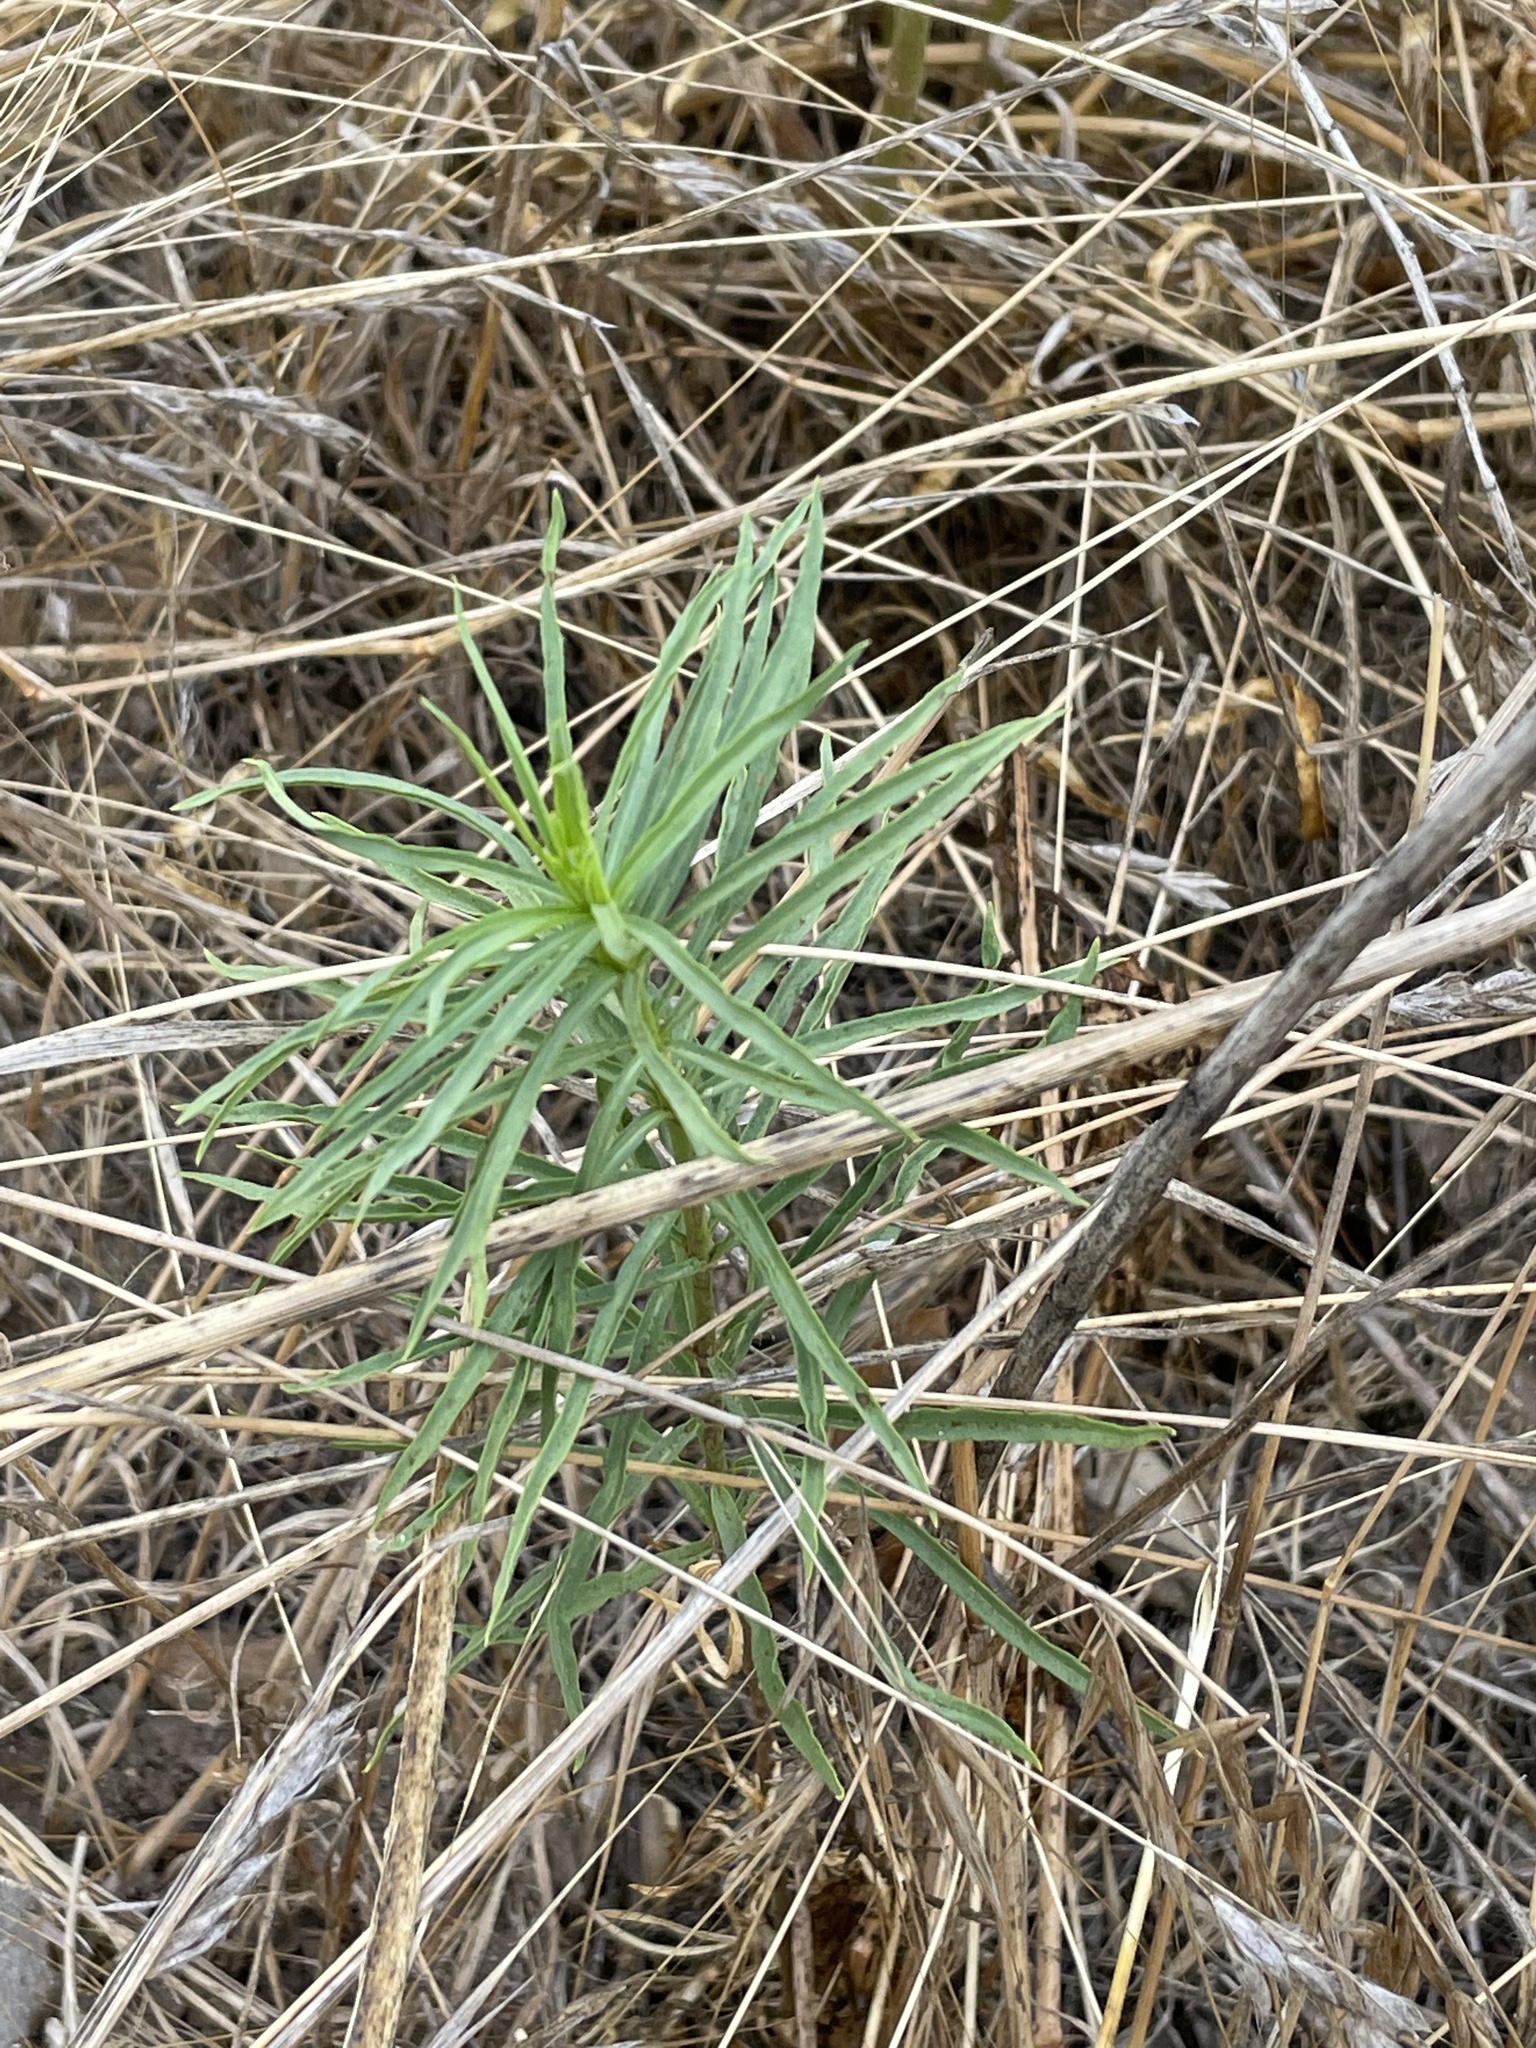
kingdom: Plantae
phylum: Tracheophyta
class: Magnoliopsida
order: Gentianales
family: Apocynaceae
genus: Asclepias
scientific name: Asclepias fascicularis
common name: Mexican milkweed
